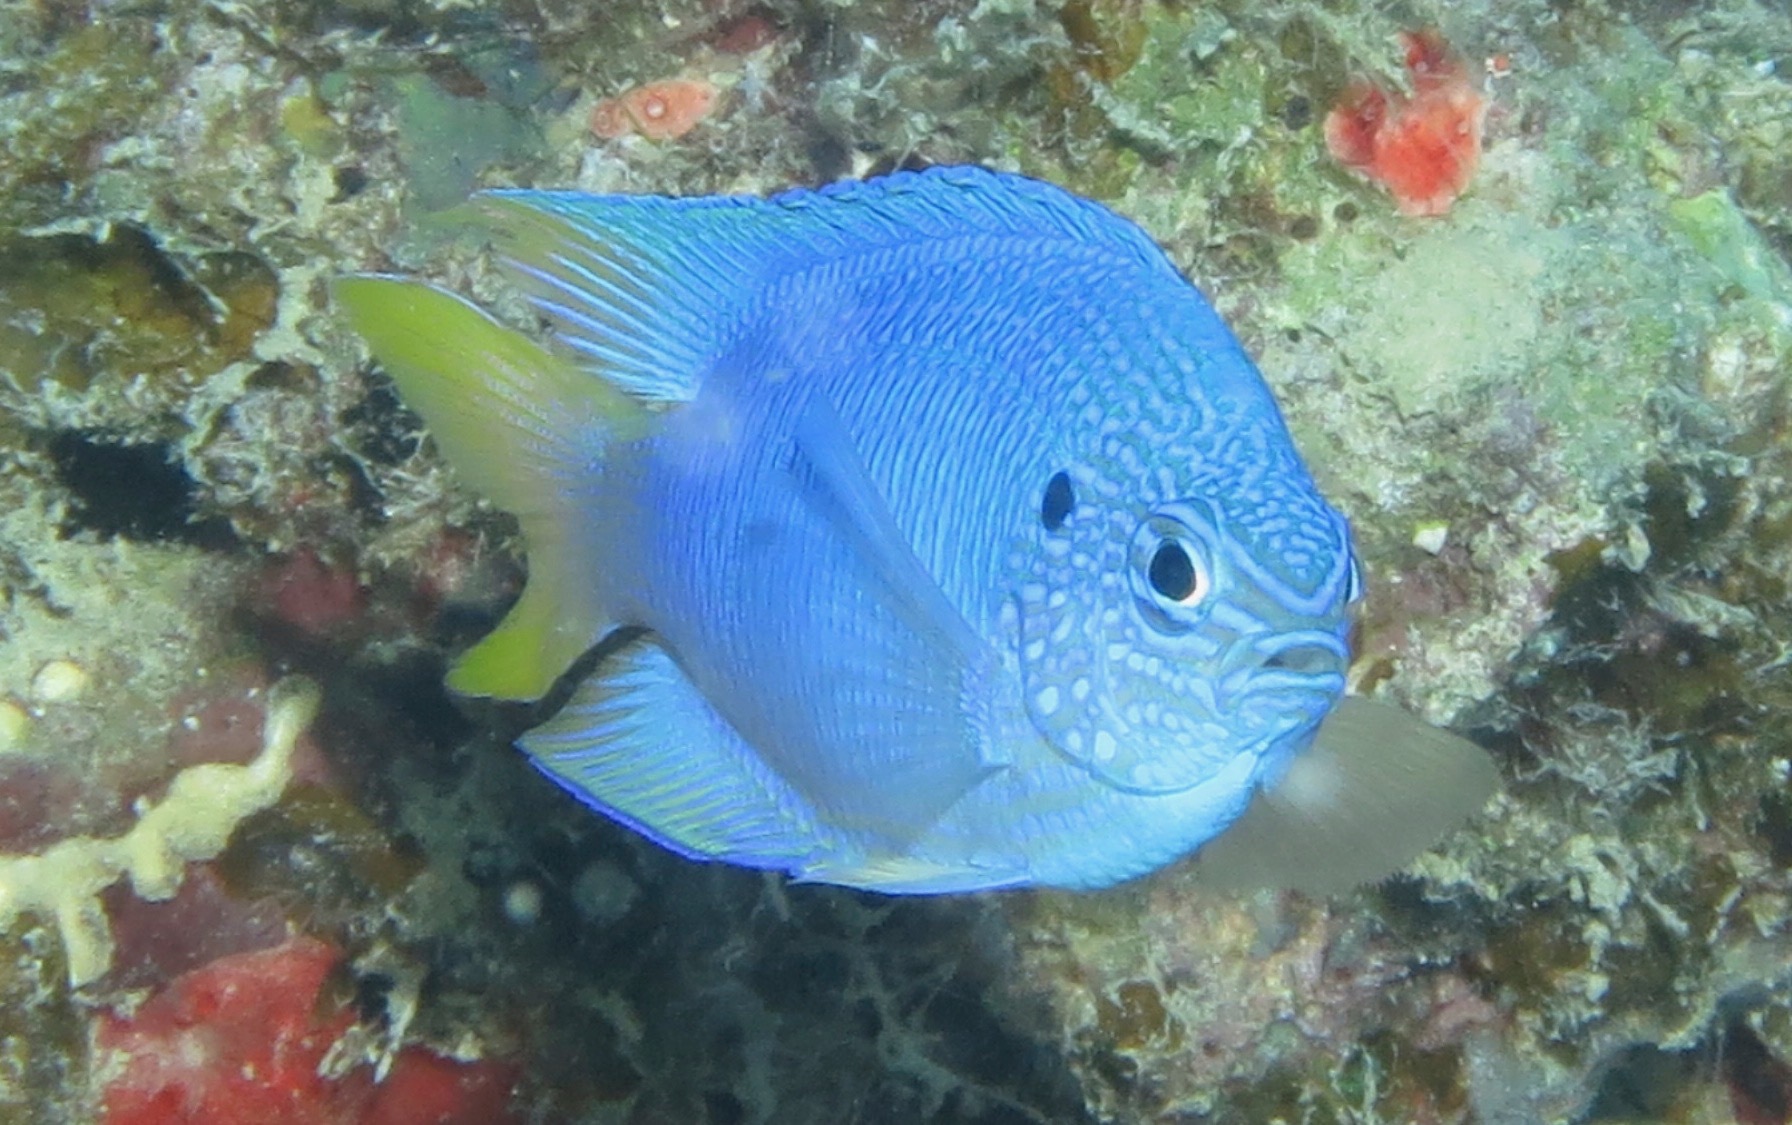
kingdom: Animalia
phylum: Chordata
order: Perciformes
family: Pomacentridae
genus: Pomacentrus
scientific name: Pomacentrus pavo
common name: Sapphire damsel
